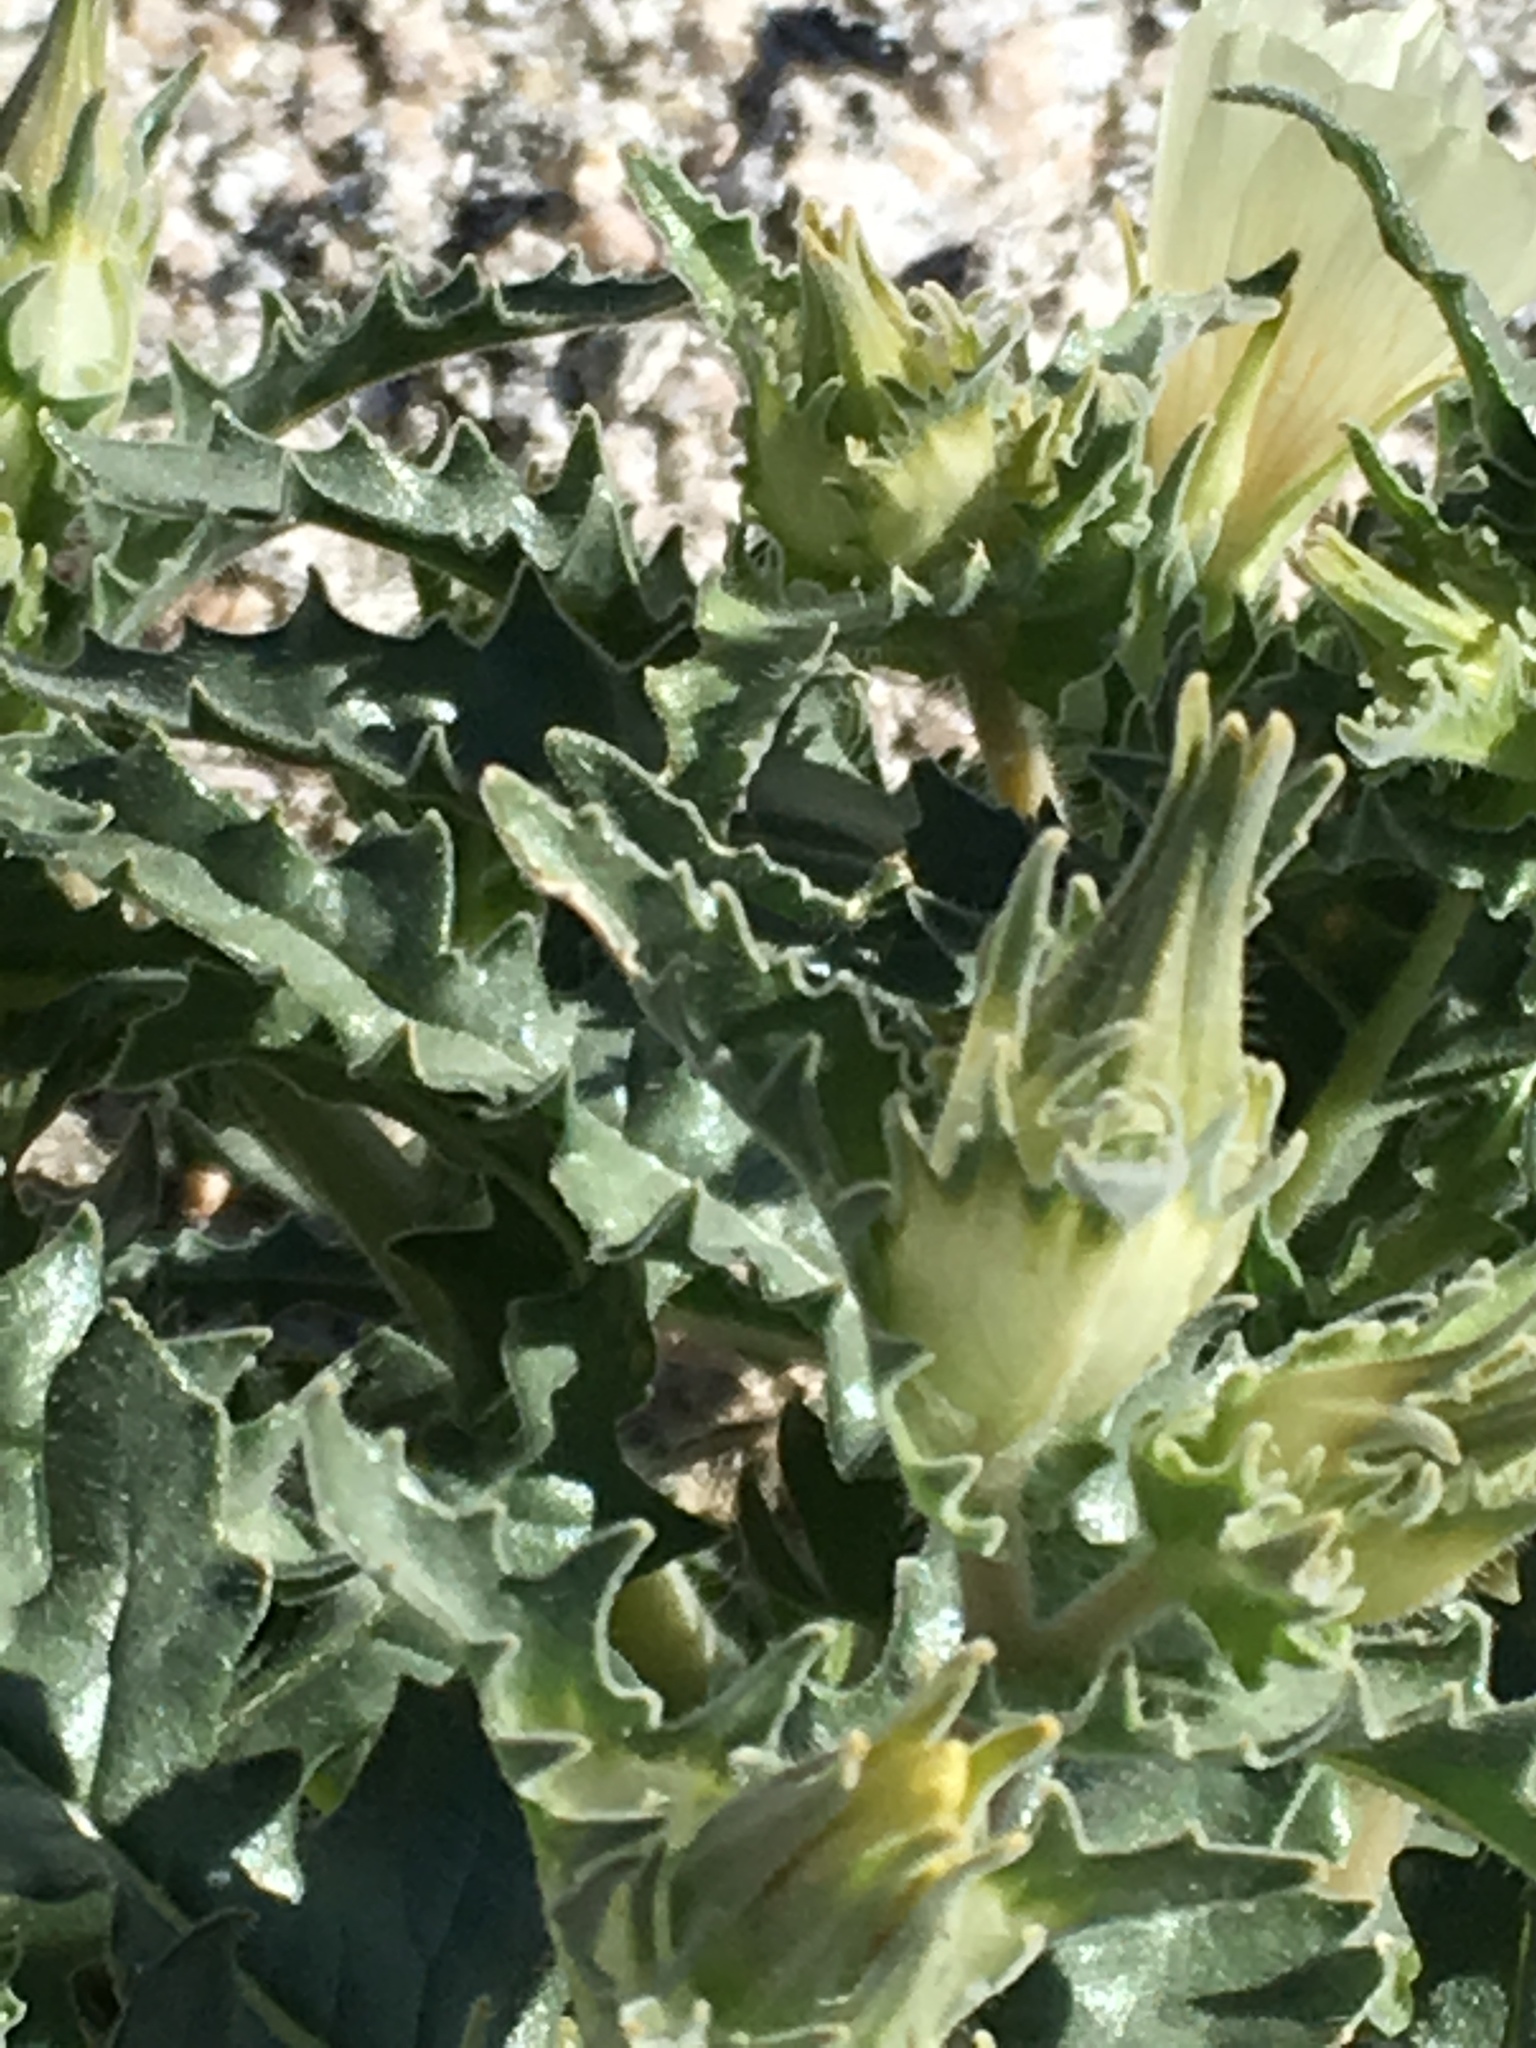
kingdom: Plantae
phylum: Tracheophyta
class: Magnoliopsida
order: Cornales
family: Loasaceae
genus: Mentzelia
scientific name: Mentzelia involucrata
